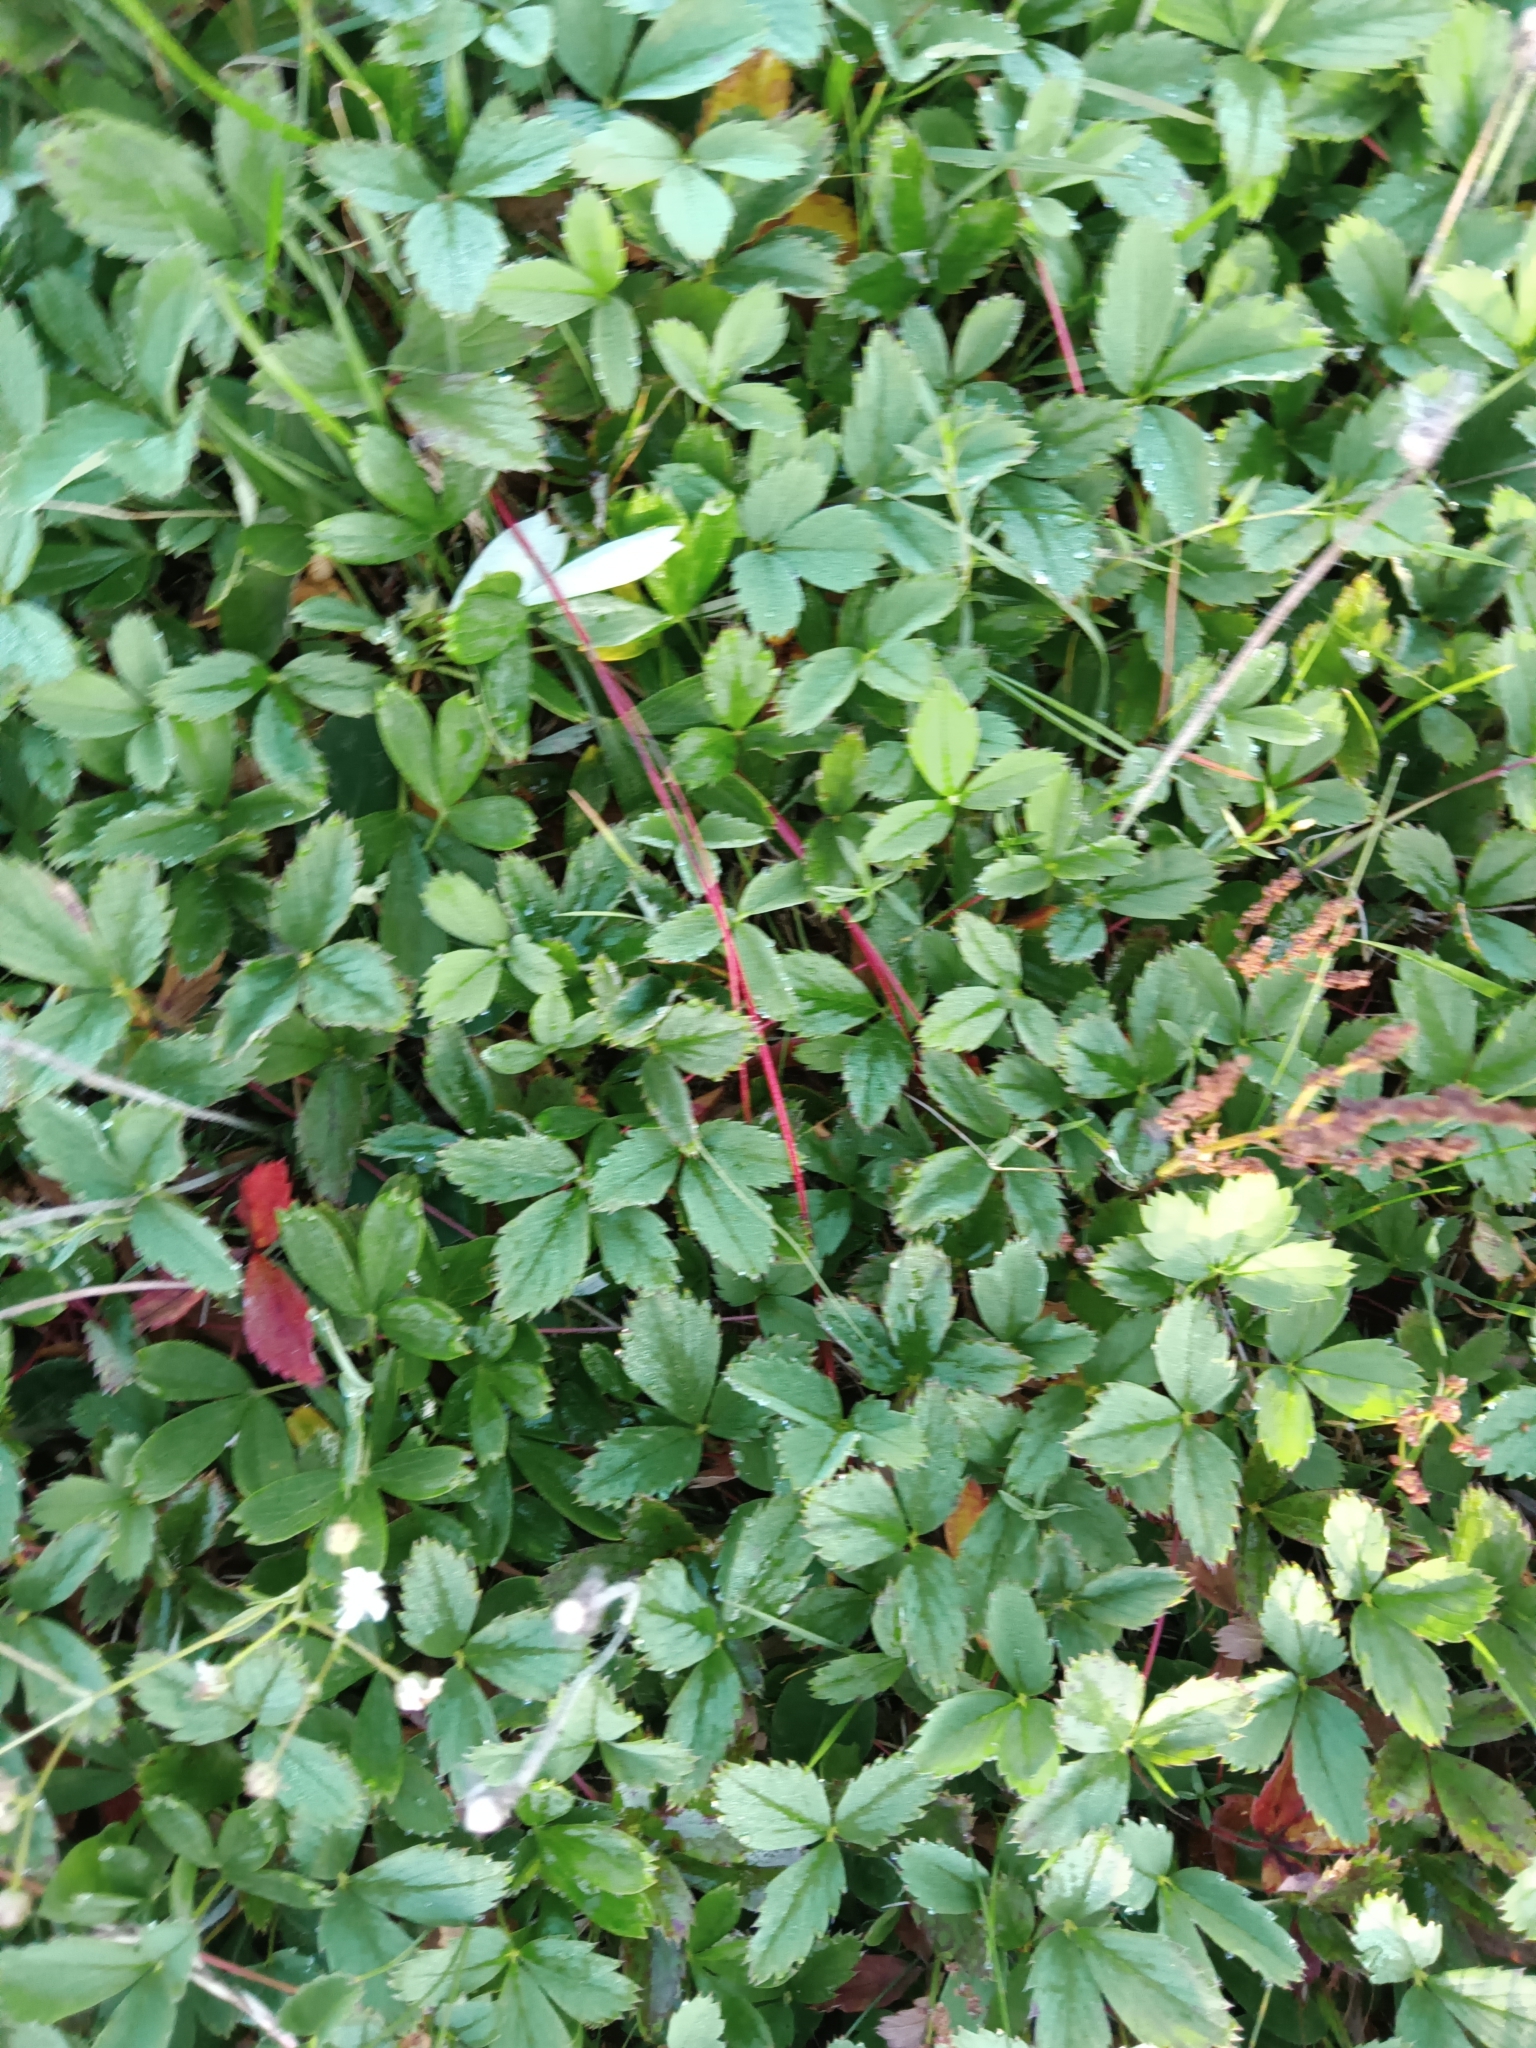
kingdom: Plantae
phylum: Tracheophyta
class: Magnoliopsida
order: Rosales
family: Rosaceae
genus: Fragaria
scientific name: Fragaria virginiana
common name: Thickleaved wild strawberry
